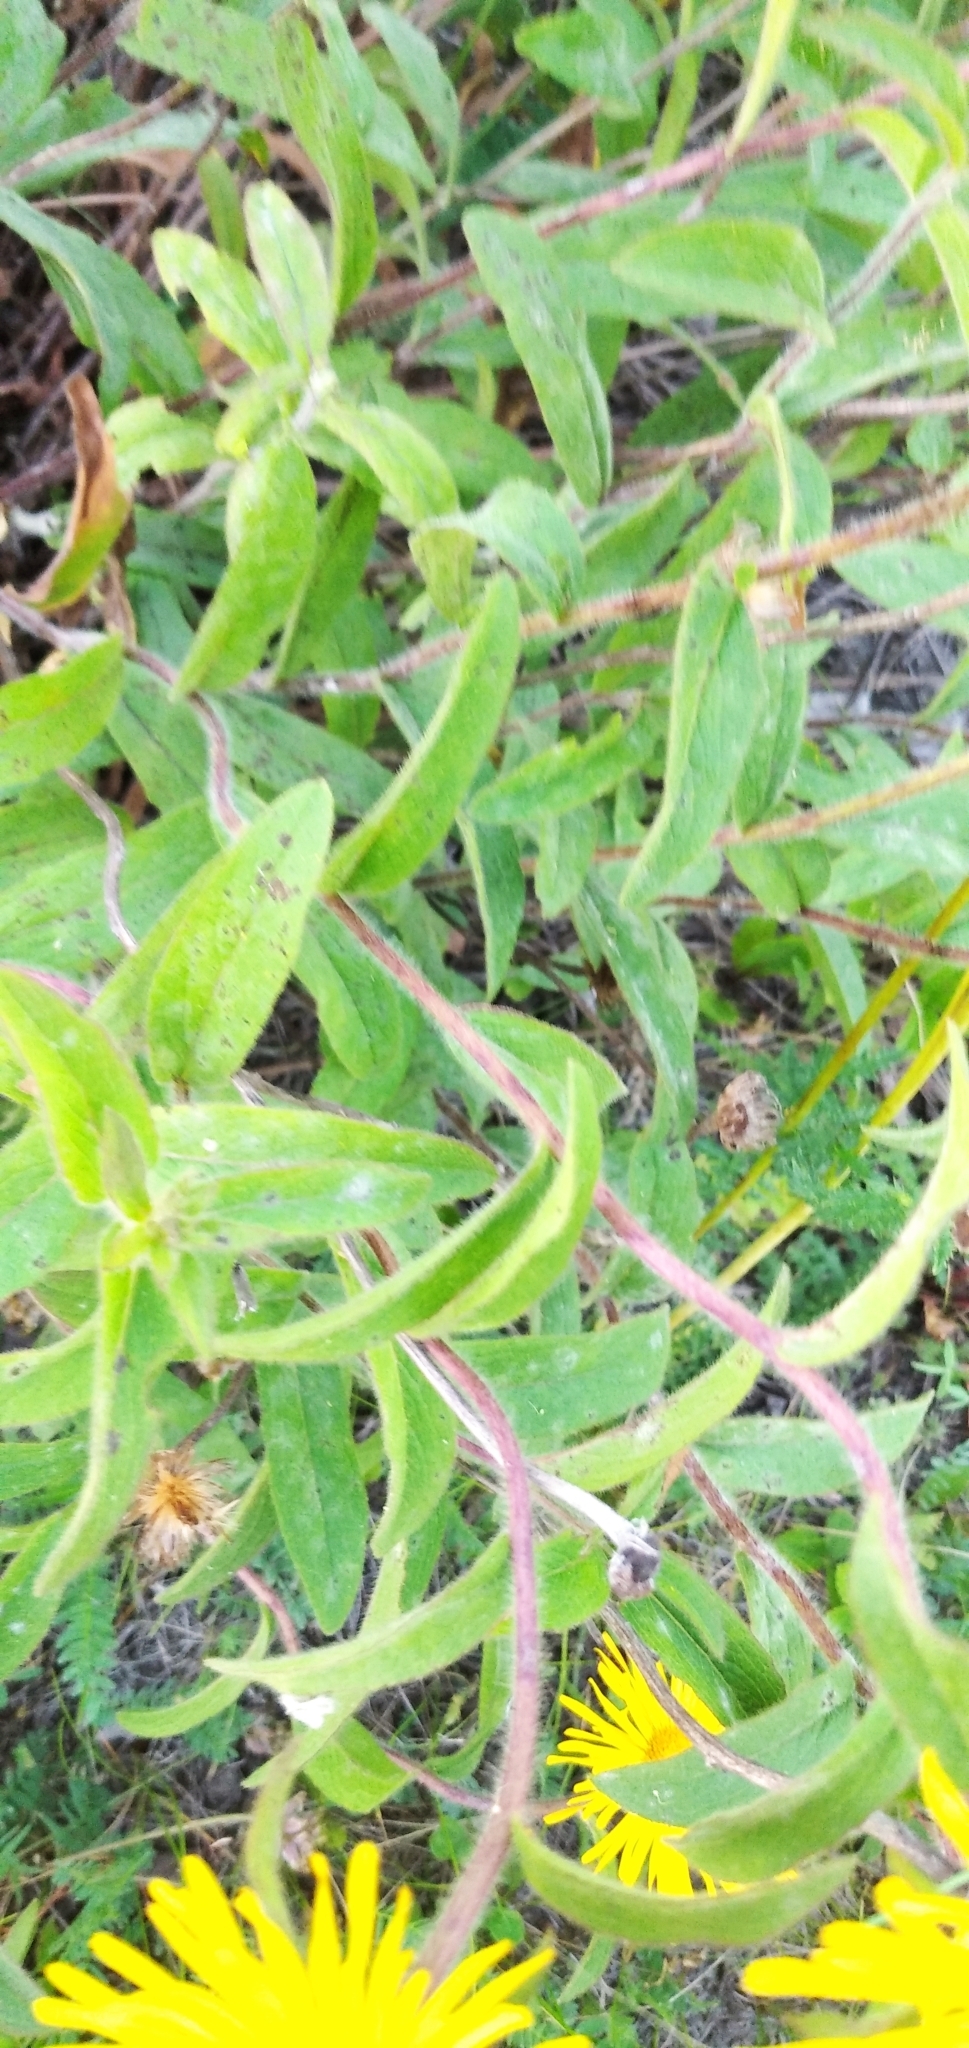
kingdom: Plantae
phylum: Tracheophyta
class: Magnoliopsida
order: Asterales
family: Asteraceae
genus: Pentanema
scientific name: Pentanema hirtum
